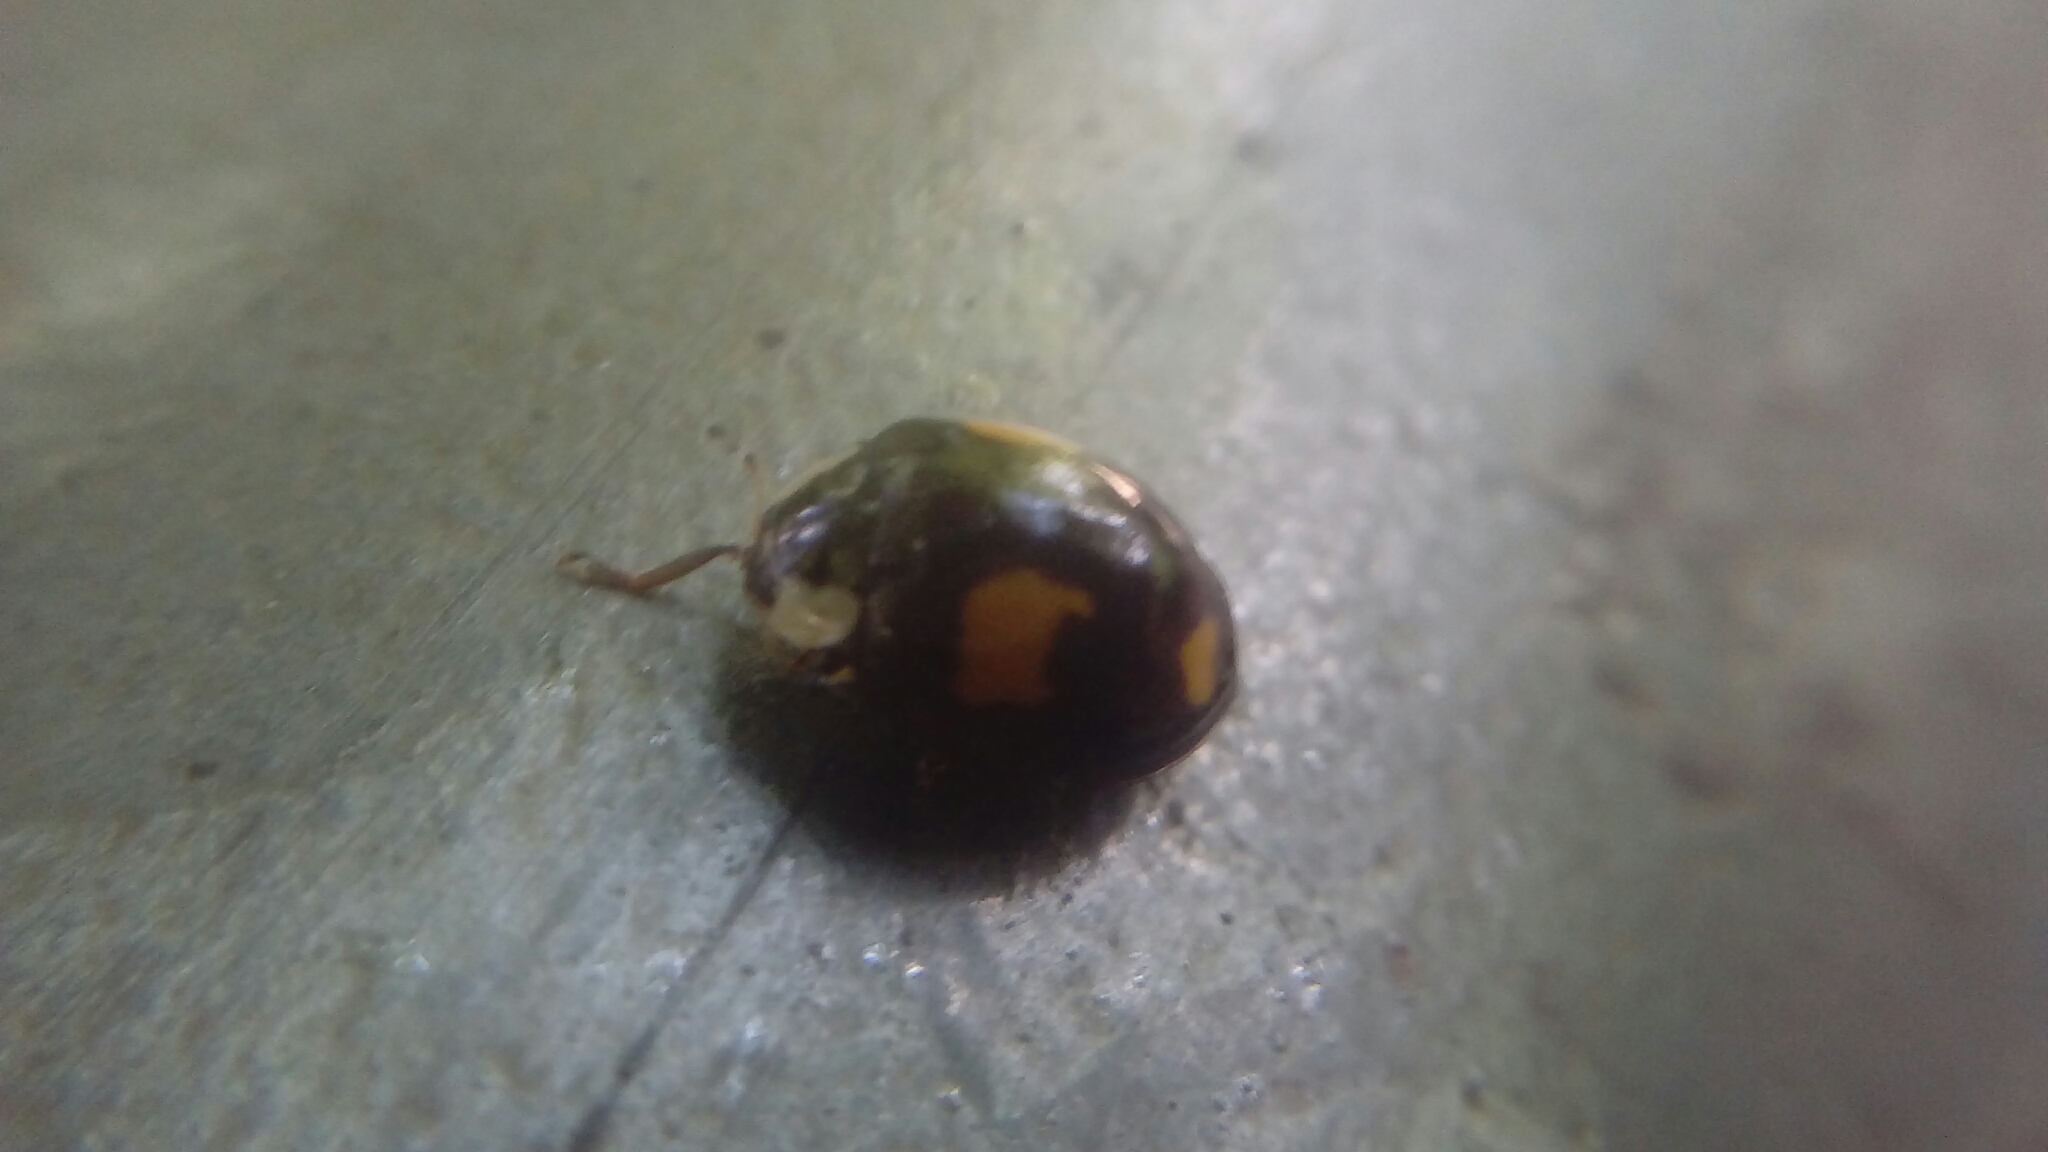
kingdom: Animalia
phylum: Arthropoda
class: Insecta
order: Coleoptera
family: Coccinellidae
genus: Harmonia
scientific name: Harmonia axyridis
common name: Harlequin ladybird
